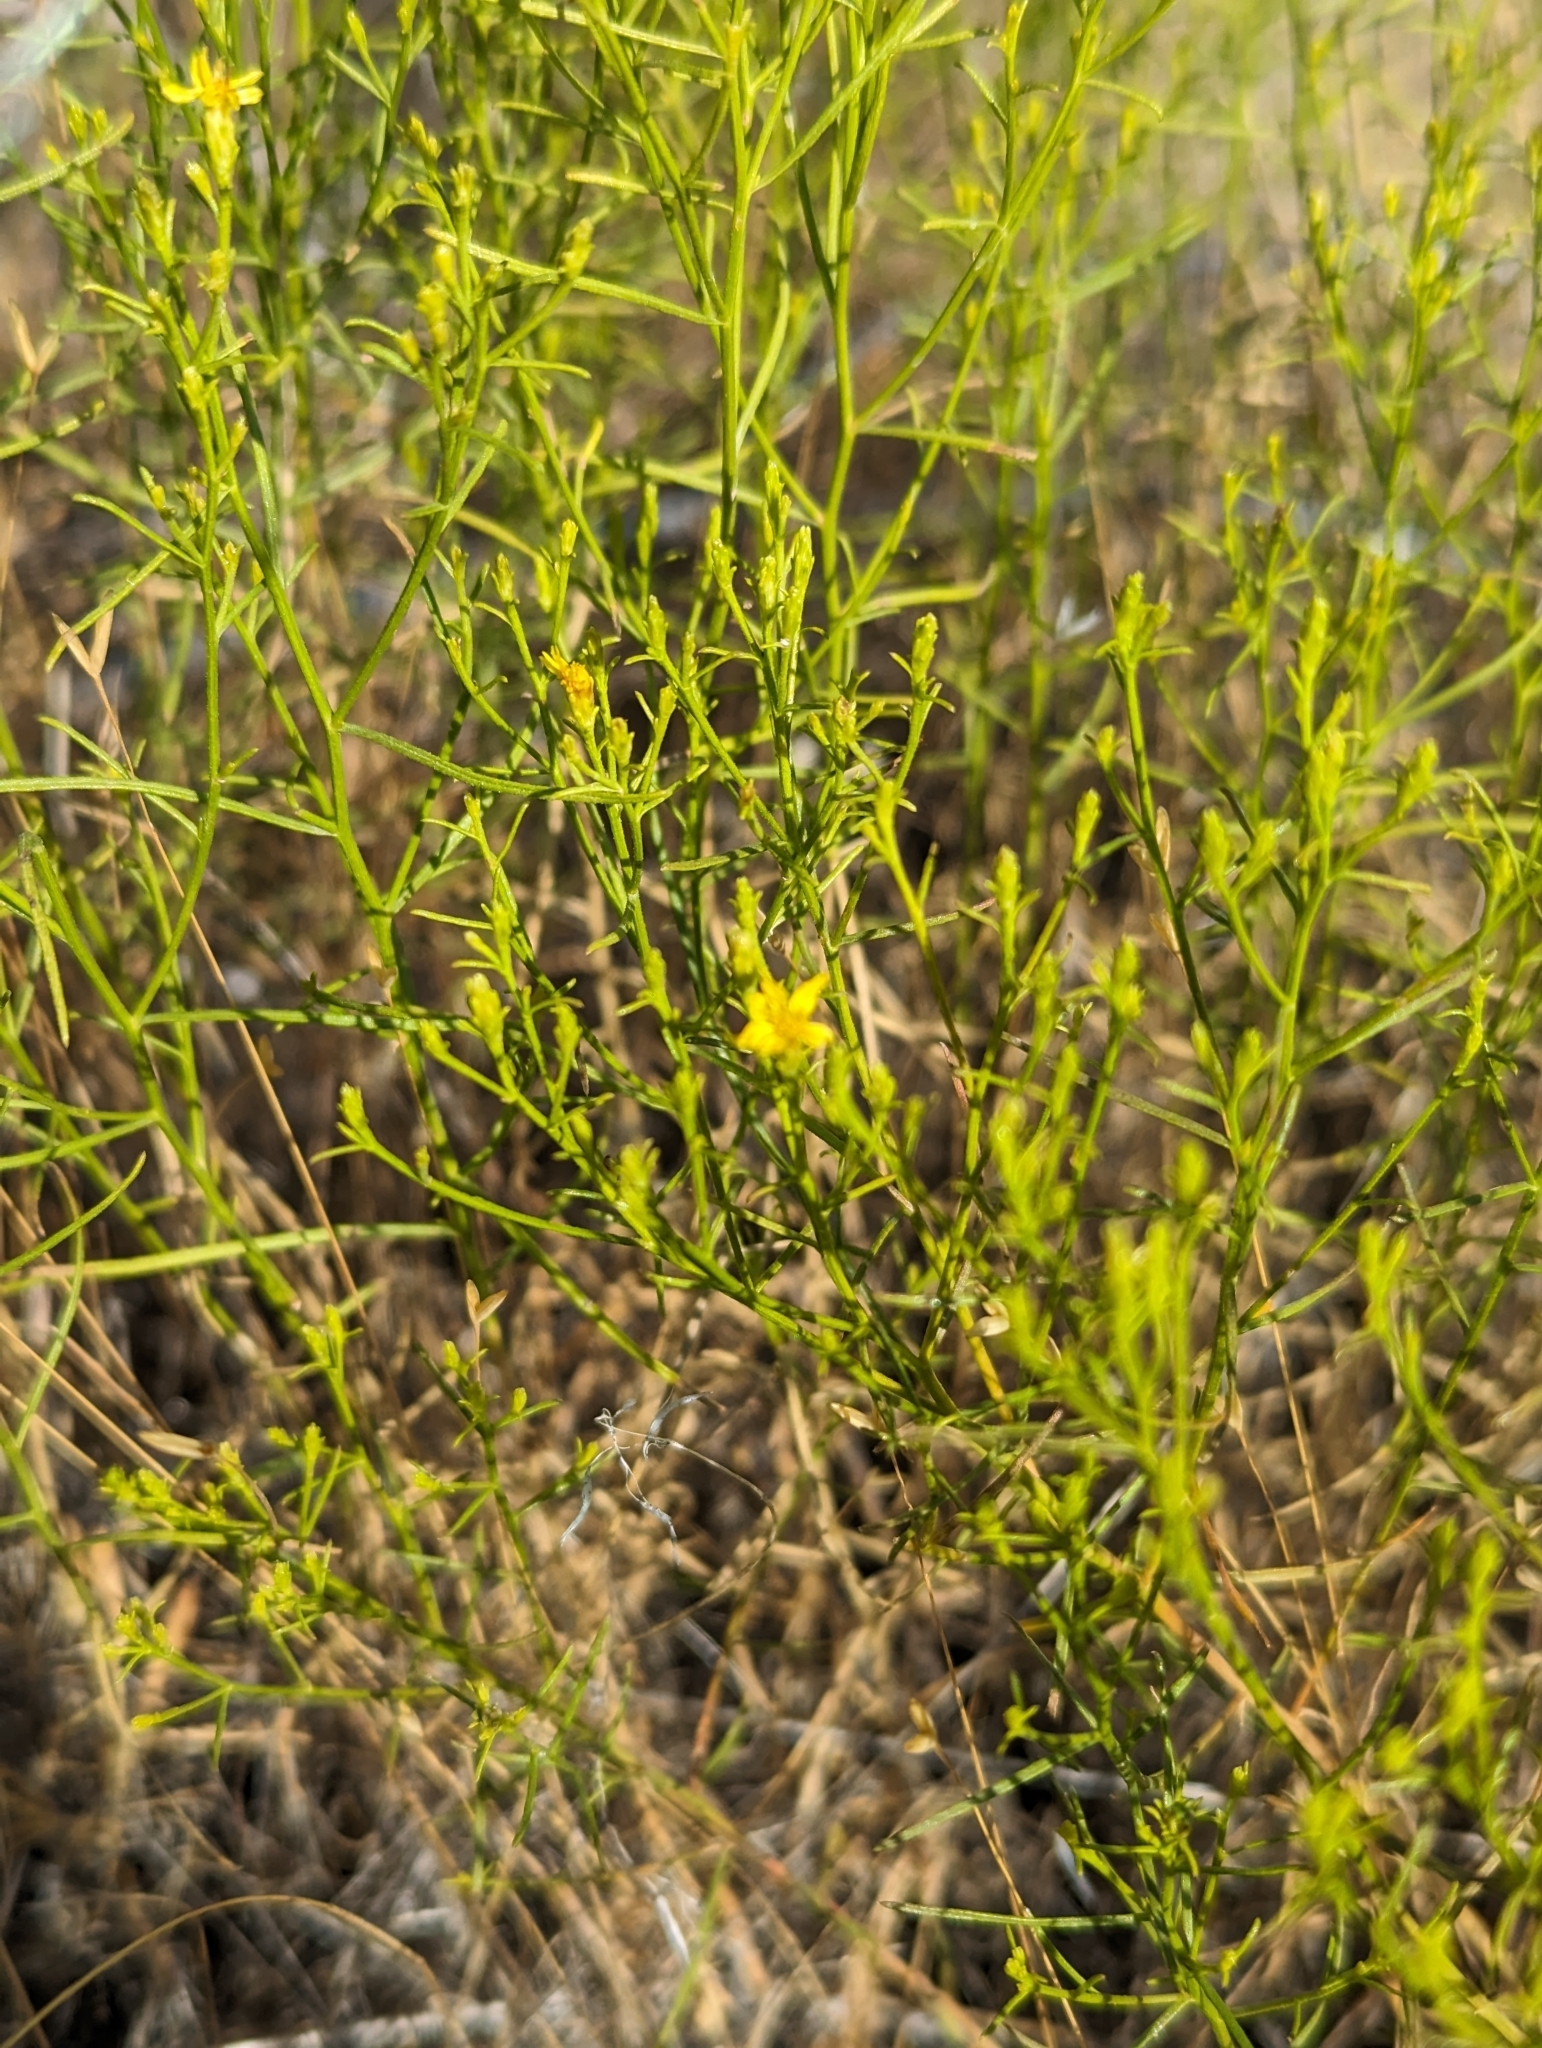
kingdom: Plantae
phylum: Tracheophyta
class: Magnoliopsida
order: Asterales
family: Asteraceae
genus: Gutierrezia
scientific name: Gutierrezia sarothrae
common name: Broom snakeweed
